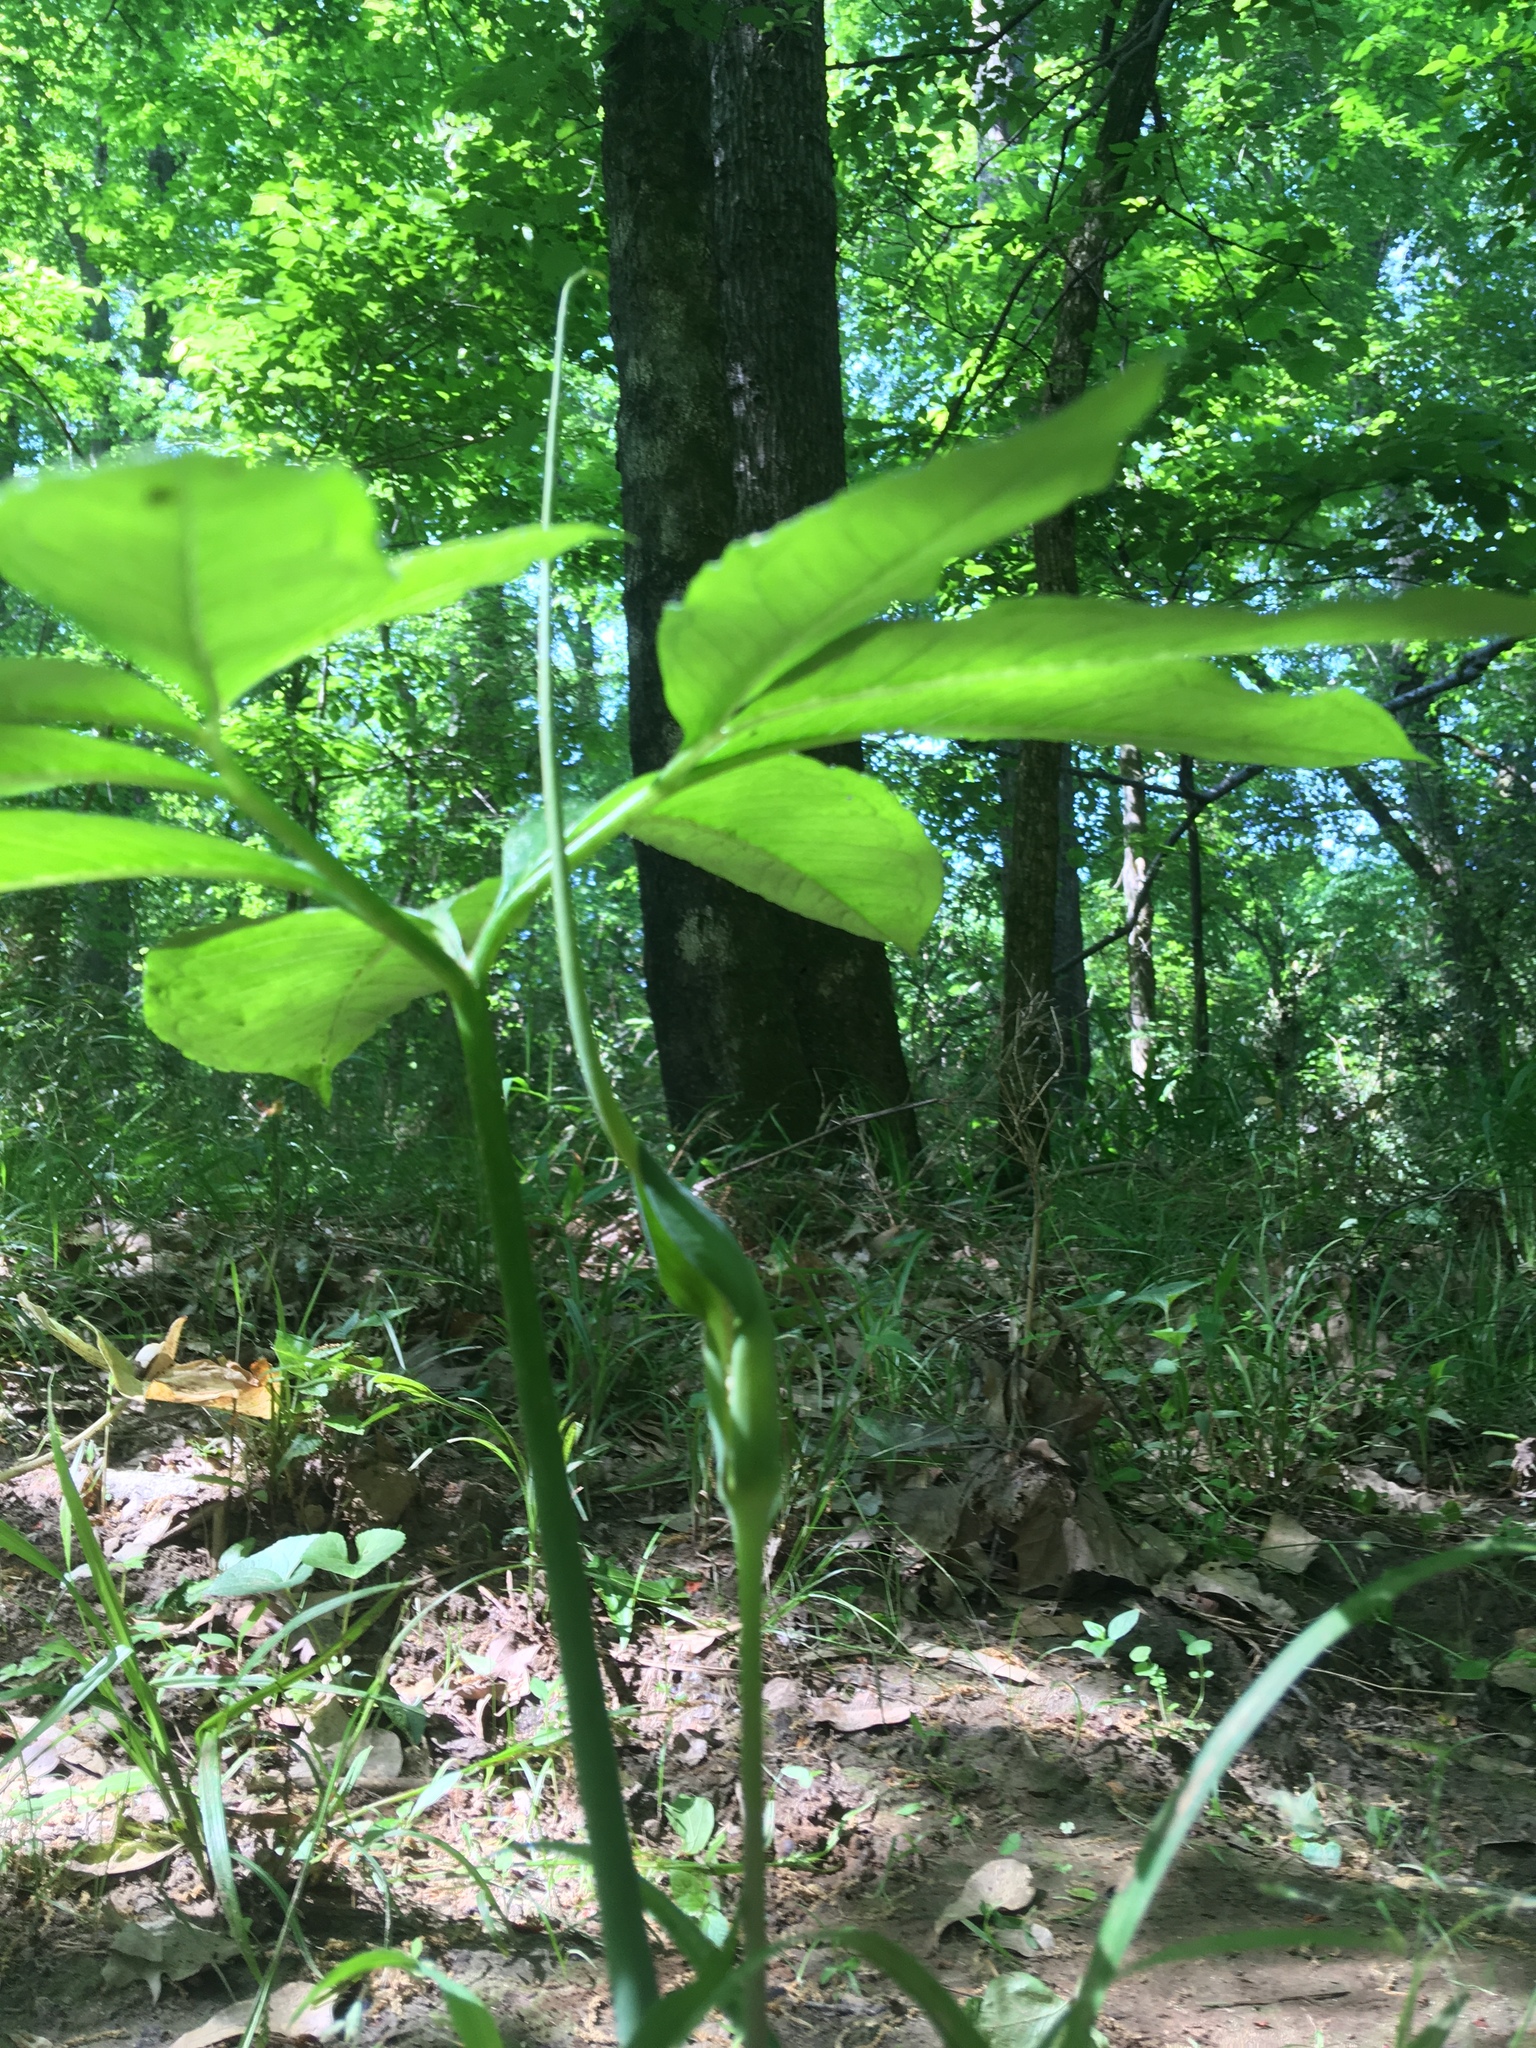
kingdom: Plantae
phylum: Tracheophyta
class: Liliopsida
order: Alismatales
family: Araceae
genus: Arisaema
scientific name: Arisaema dracontium
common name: Dragon-arum
